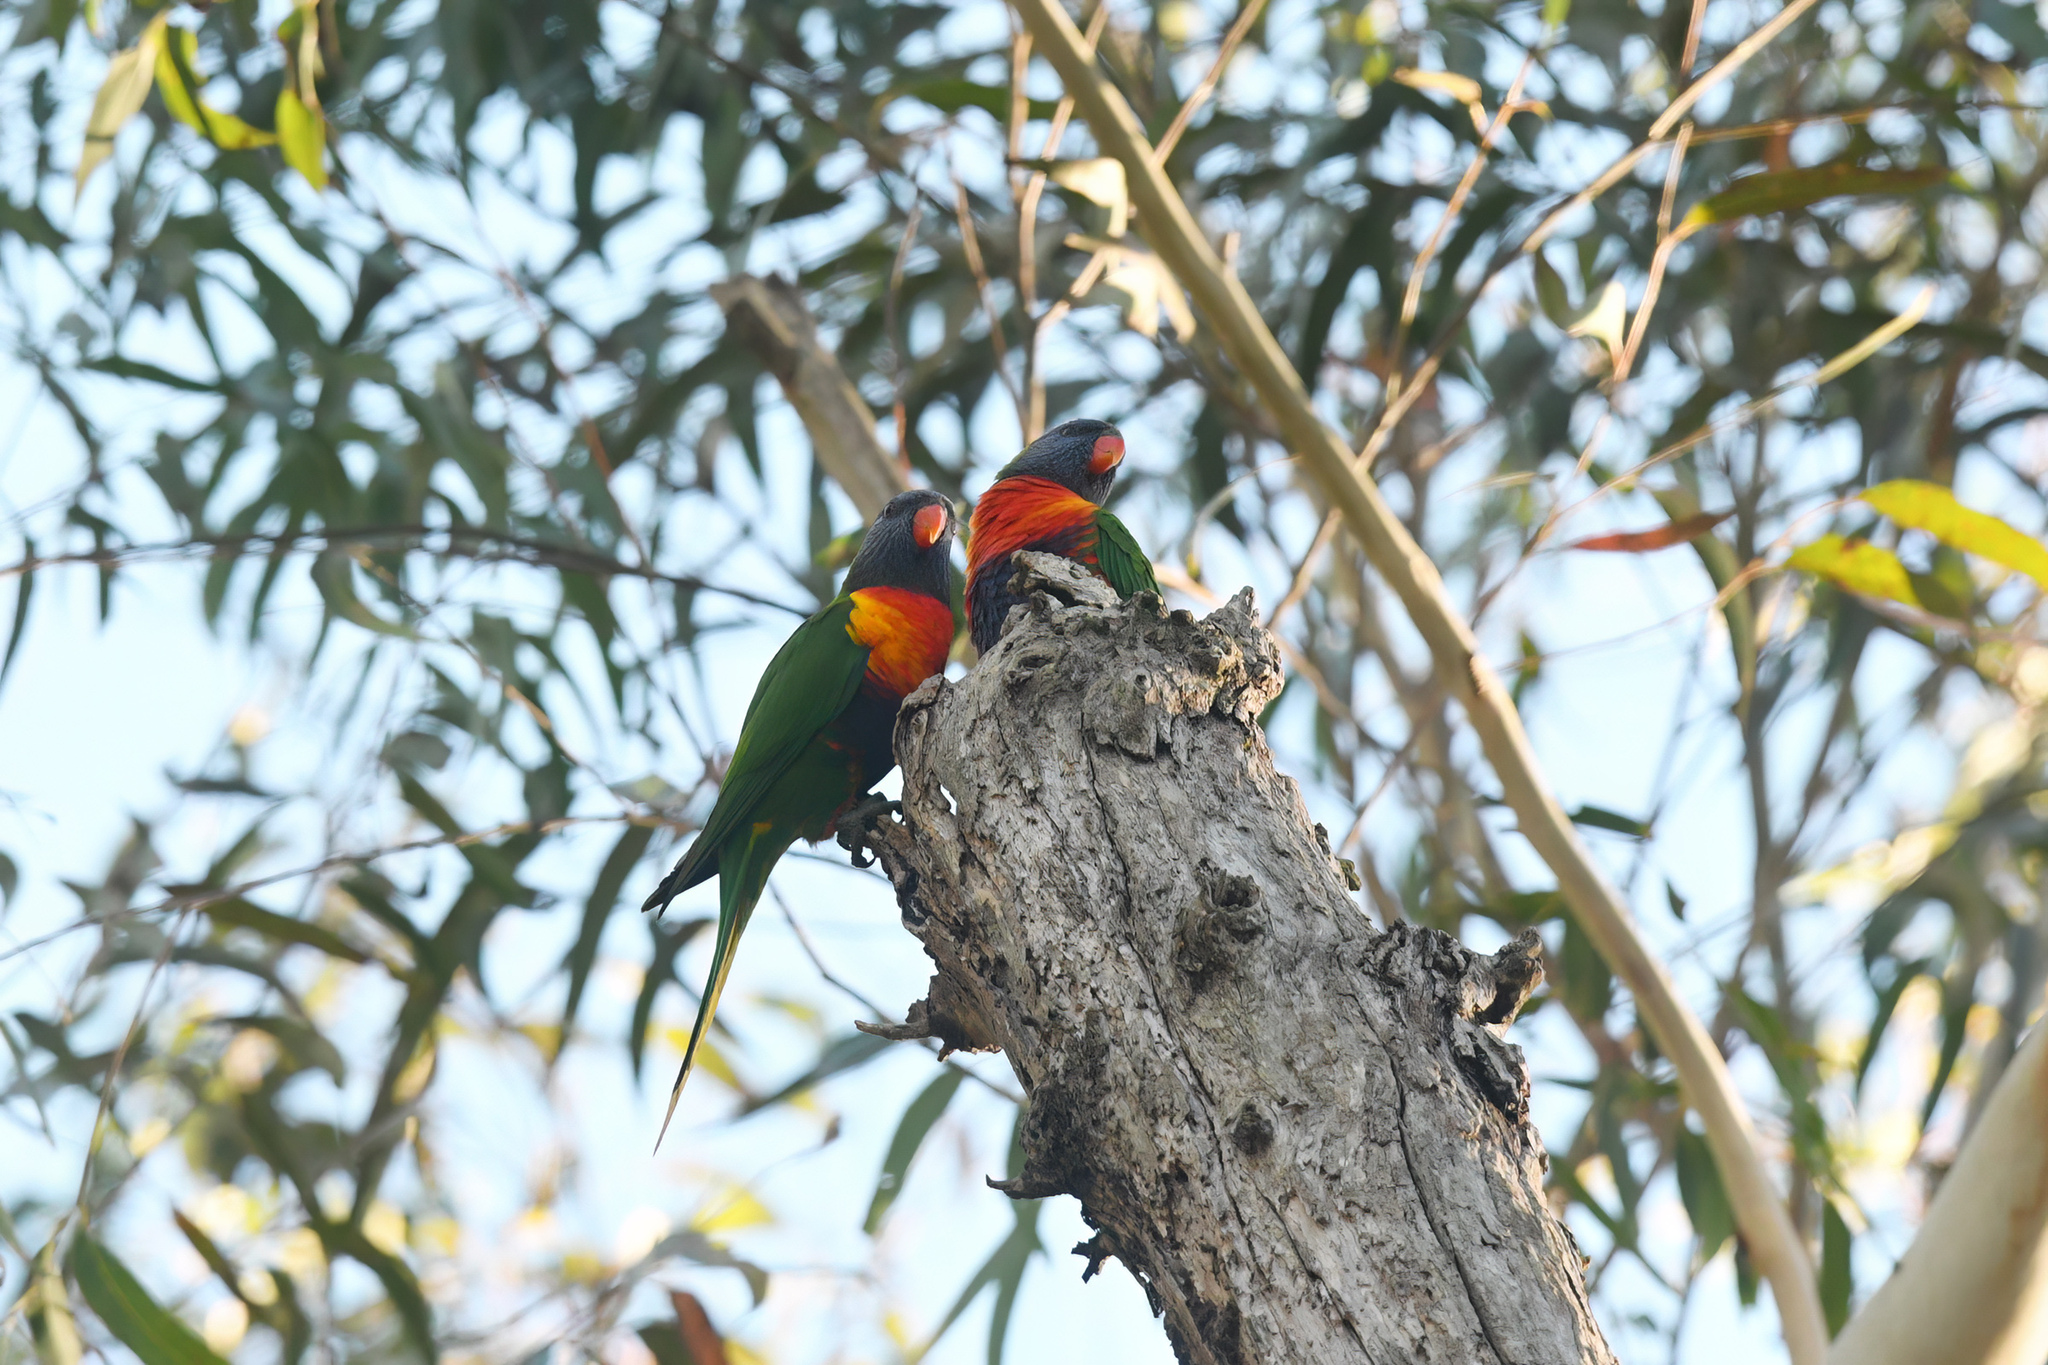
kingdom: Animalia
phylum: Chordata
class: Aves
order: Psittaciformes
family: Psittacidae
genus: Trichoglossus
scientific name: Trichoglossus haematodus
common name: Coconut lorikeet
